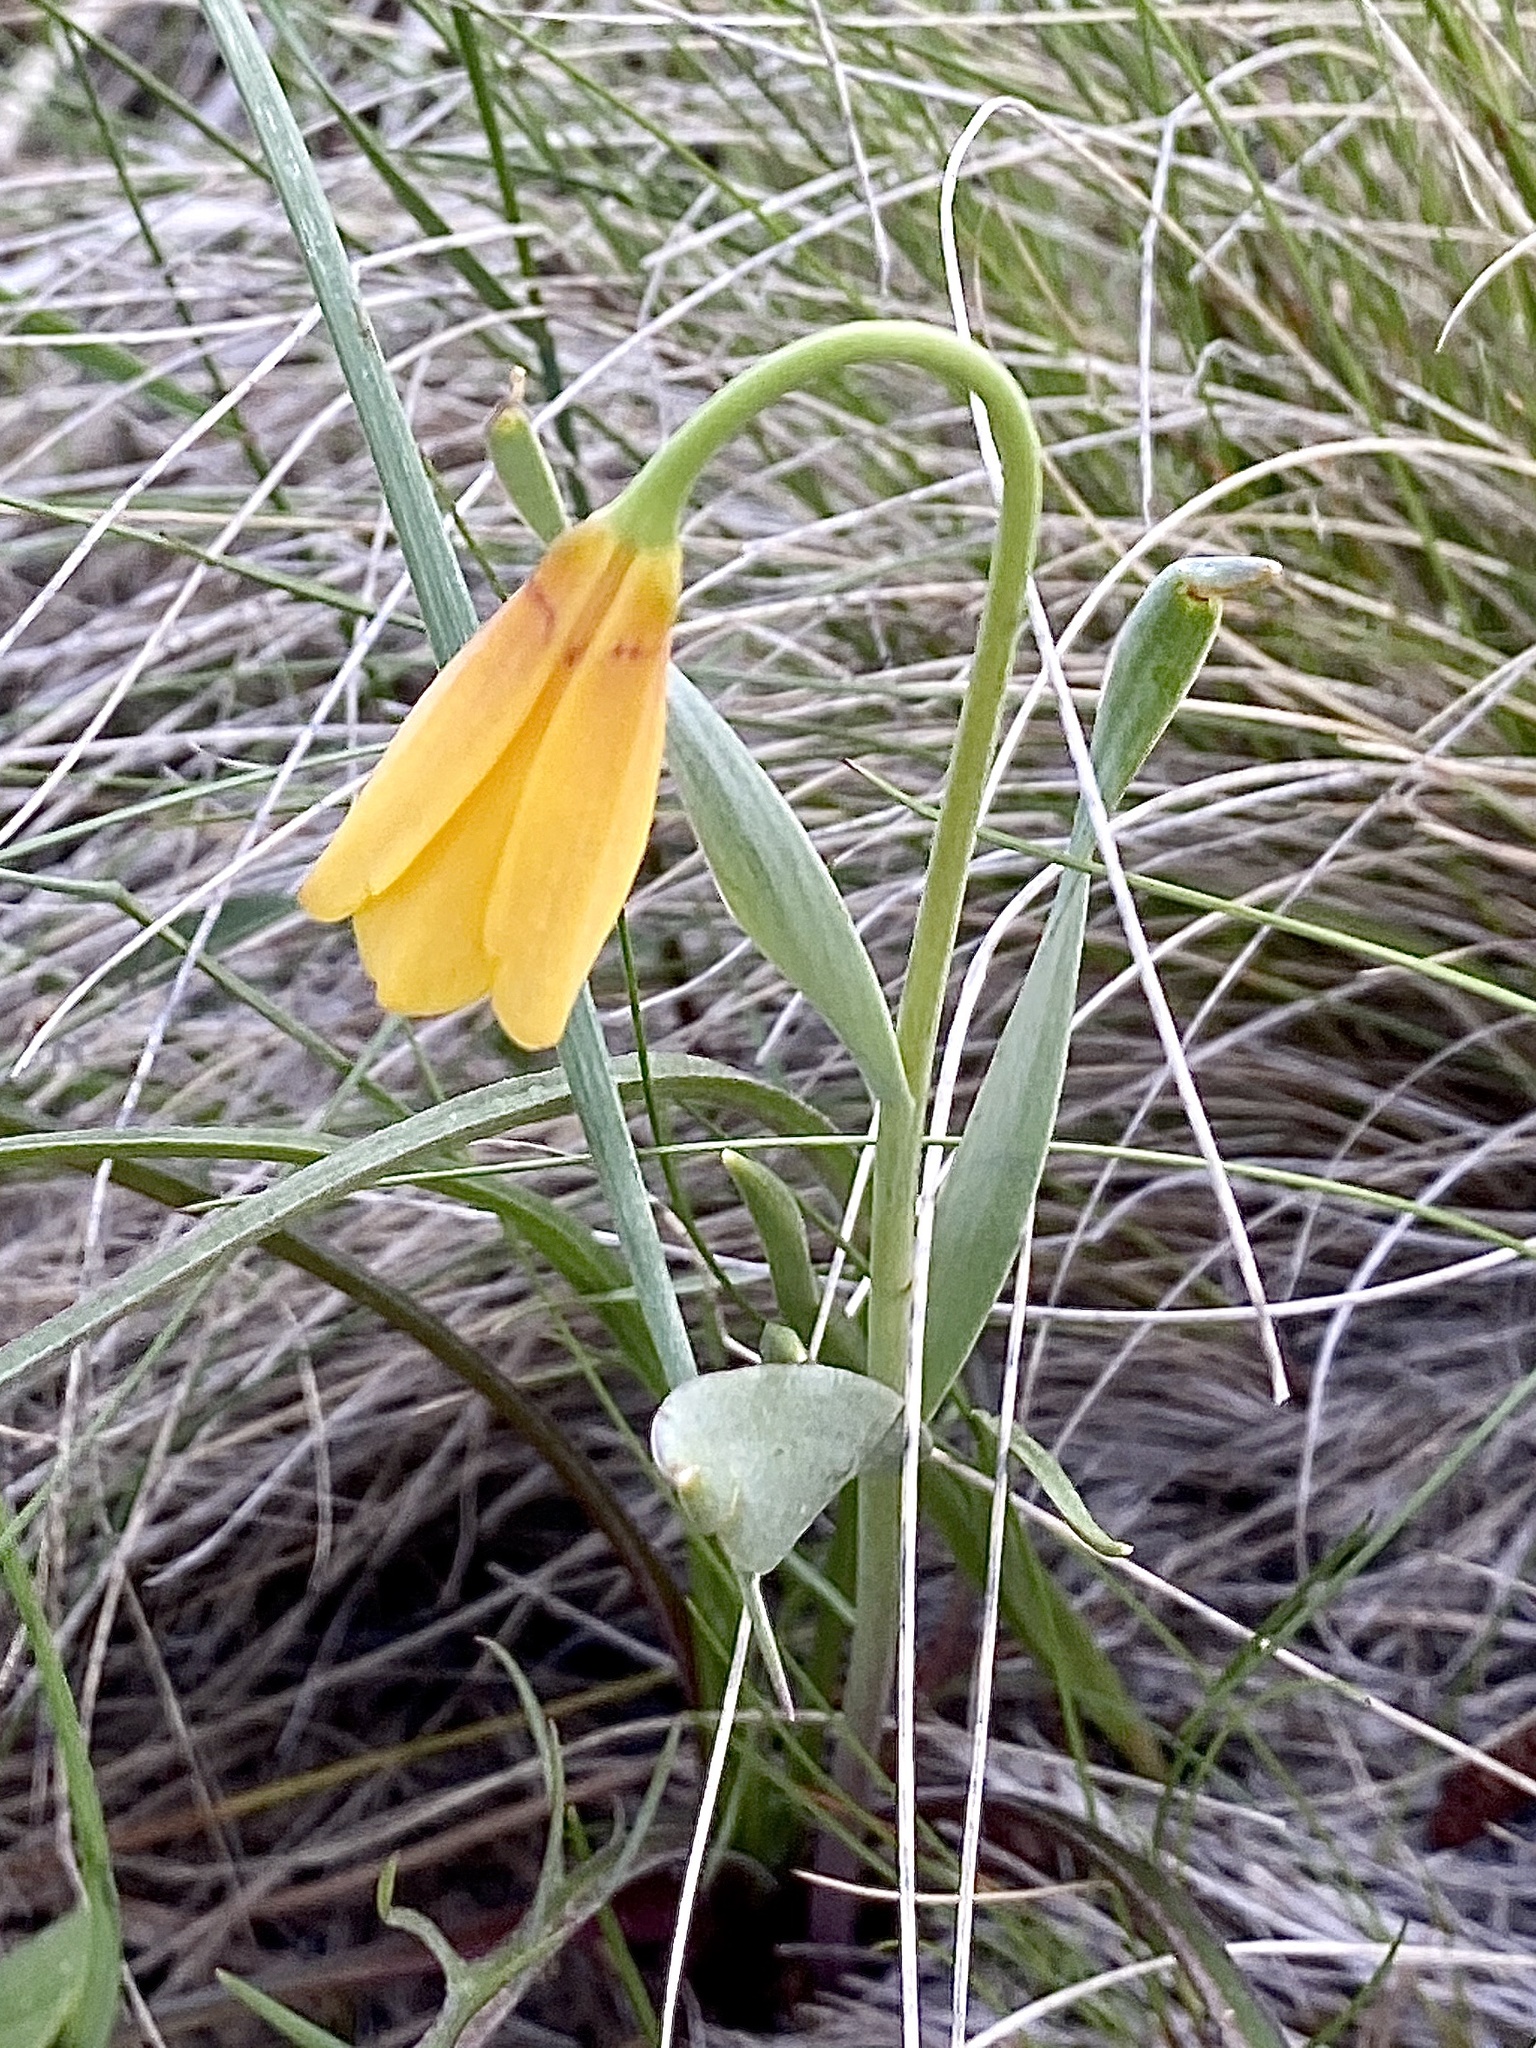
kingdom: Plantae
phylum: Tracheophyta
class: Liliopsida
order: Liliales
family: Liliaceae
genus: Fritillaria
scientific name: Fritillaria pudica
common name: Yellow fritillary
